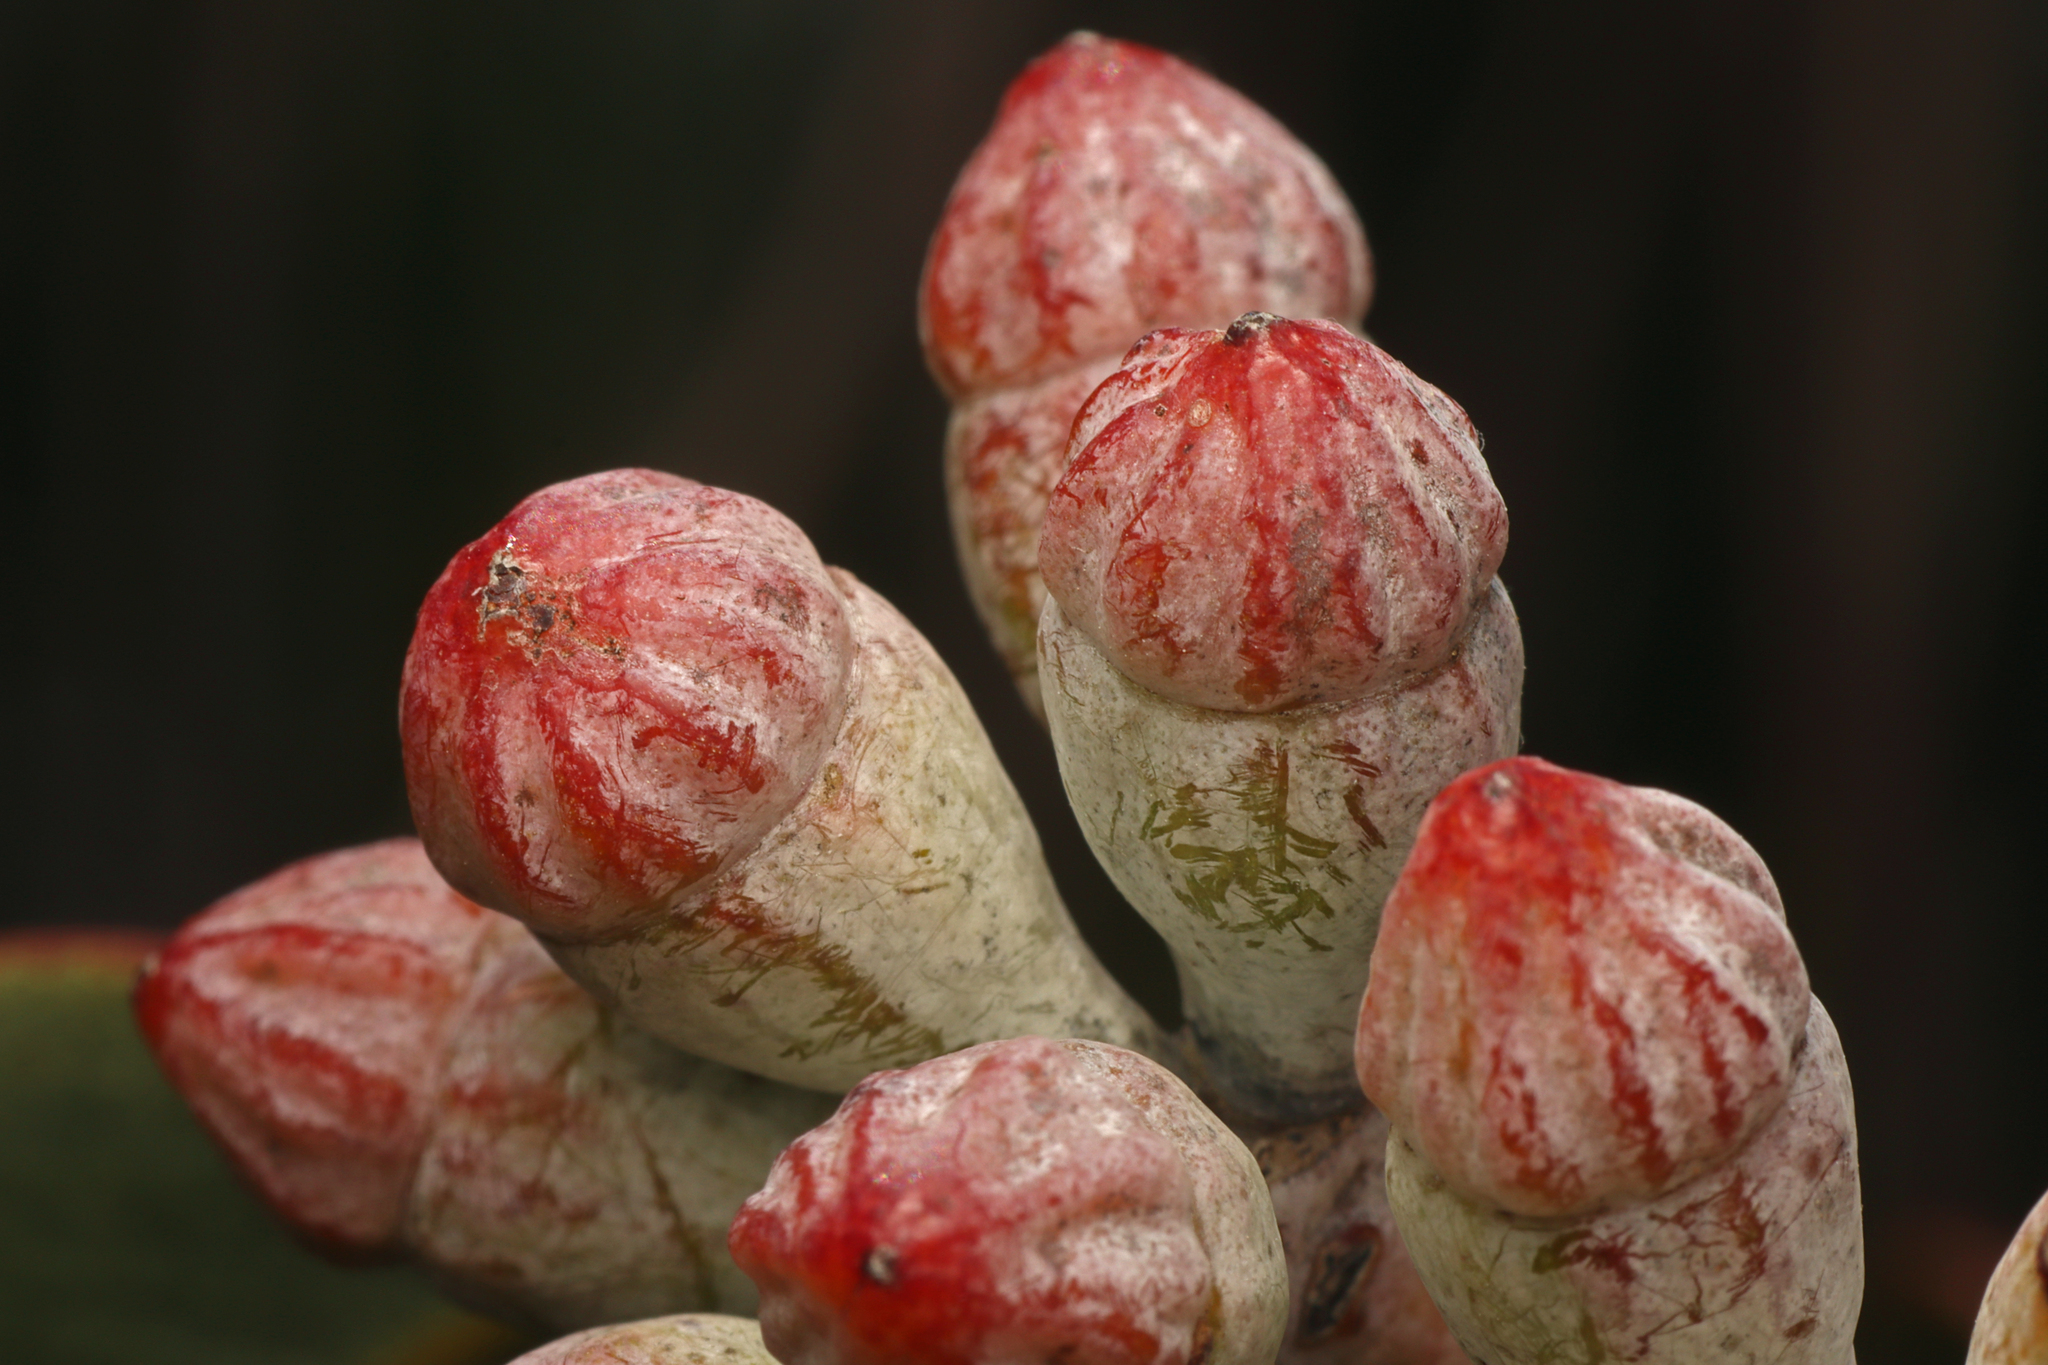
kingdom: Plantae
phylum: Tracheophyta
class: Magnoliopsida
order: Myrtales
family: Myrtaceae
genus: Eucalyptus
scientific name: Eucalyptus cretata
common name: Darke peak mallee
